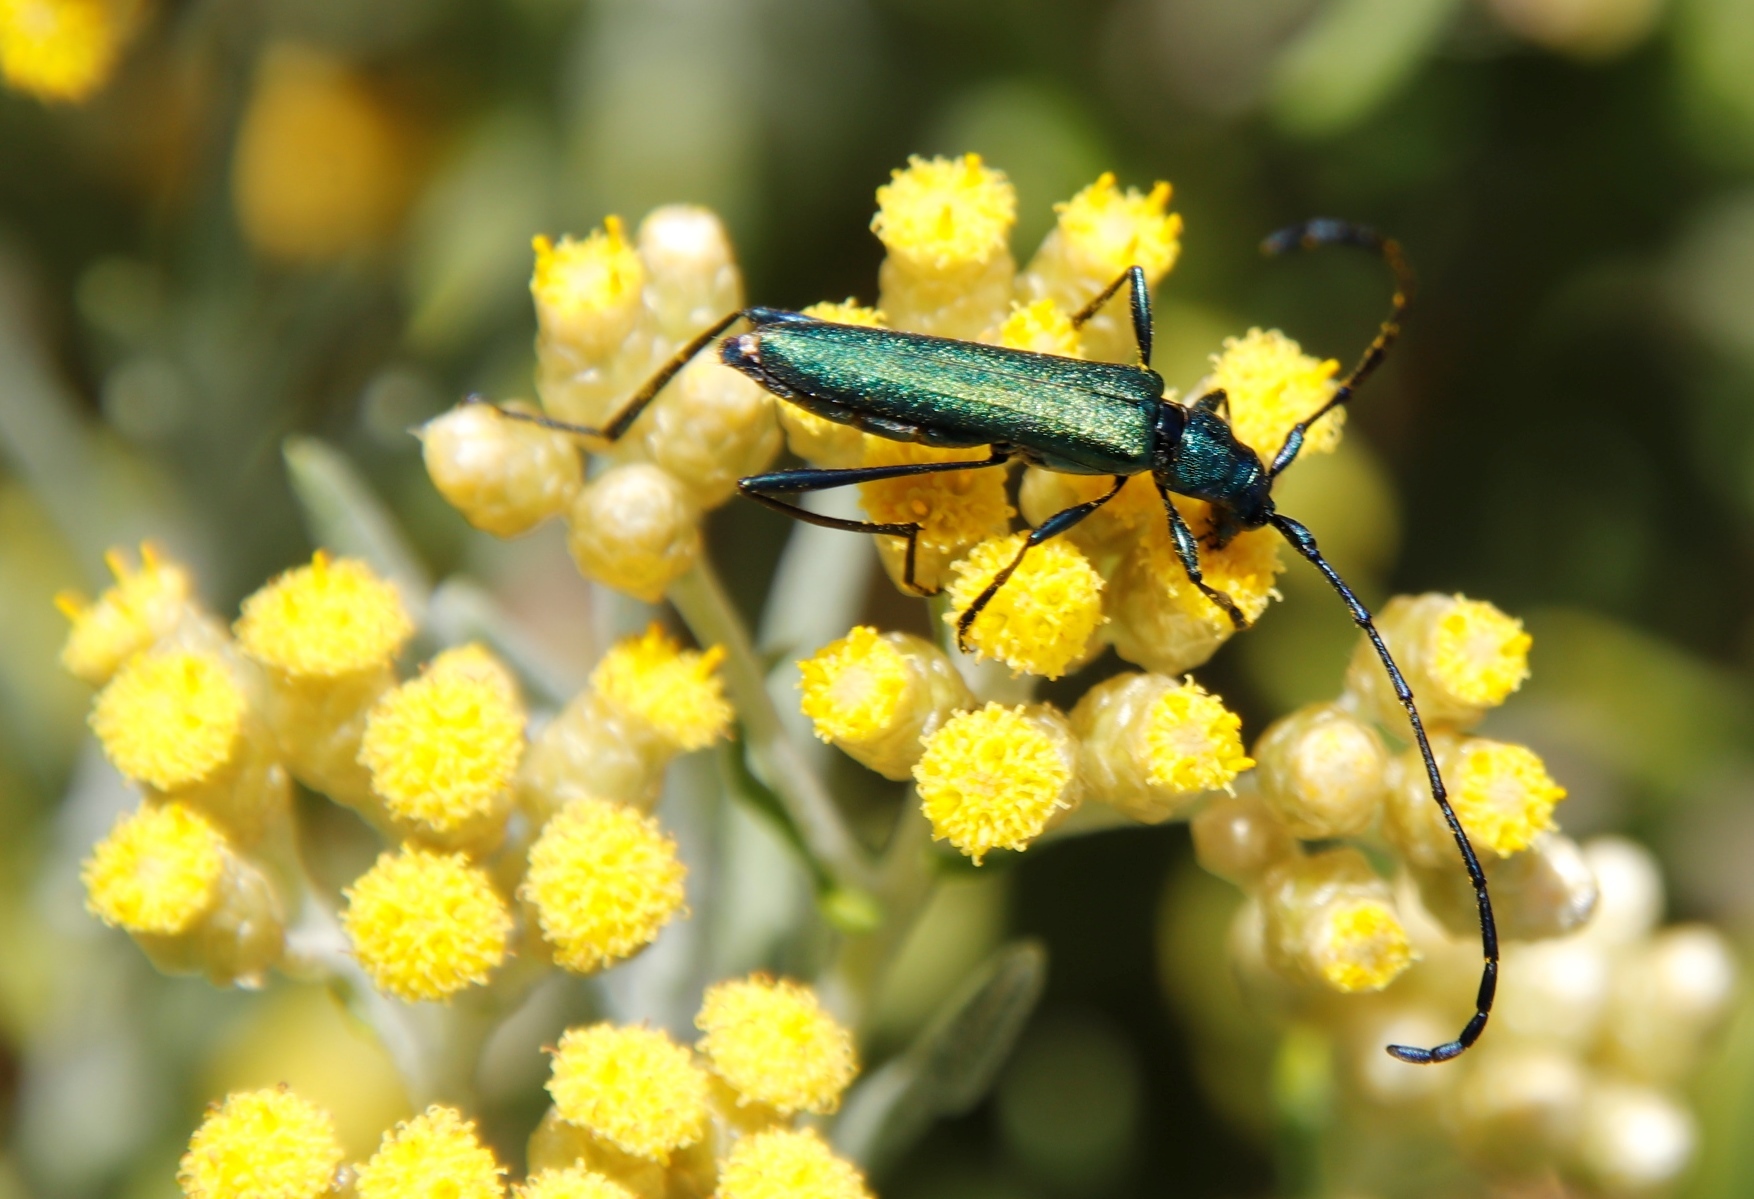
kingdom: Animalia
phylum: Arthropoda
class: Insecta
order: Coleoptera
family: Cerambycidae
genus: Promeces
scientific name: Promeces longipes
